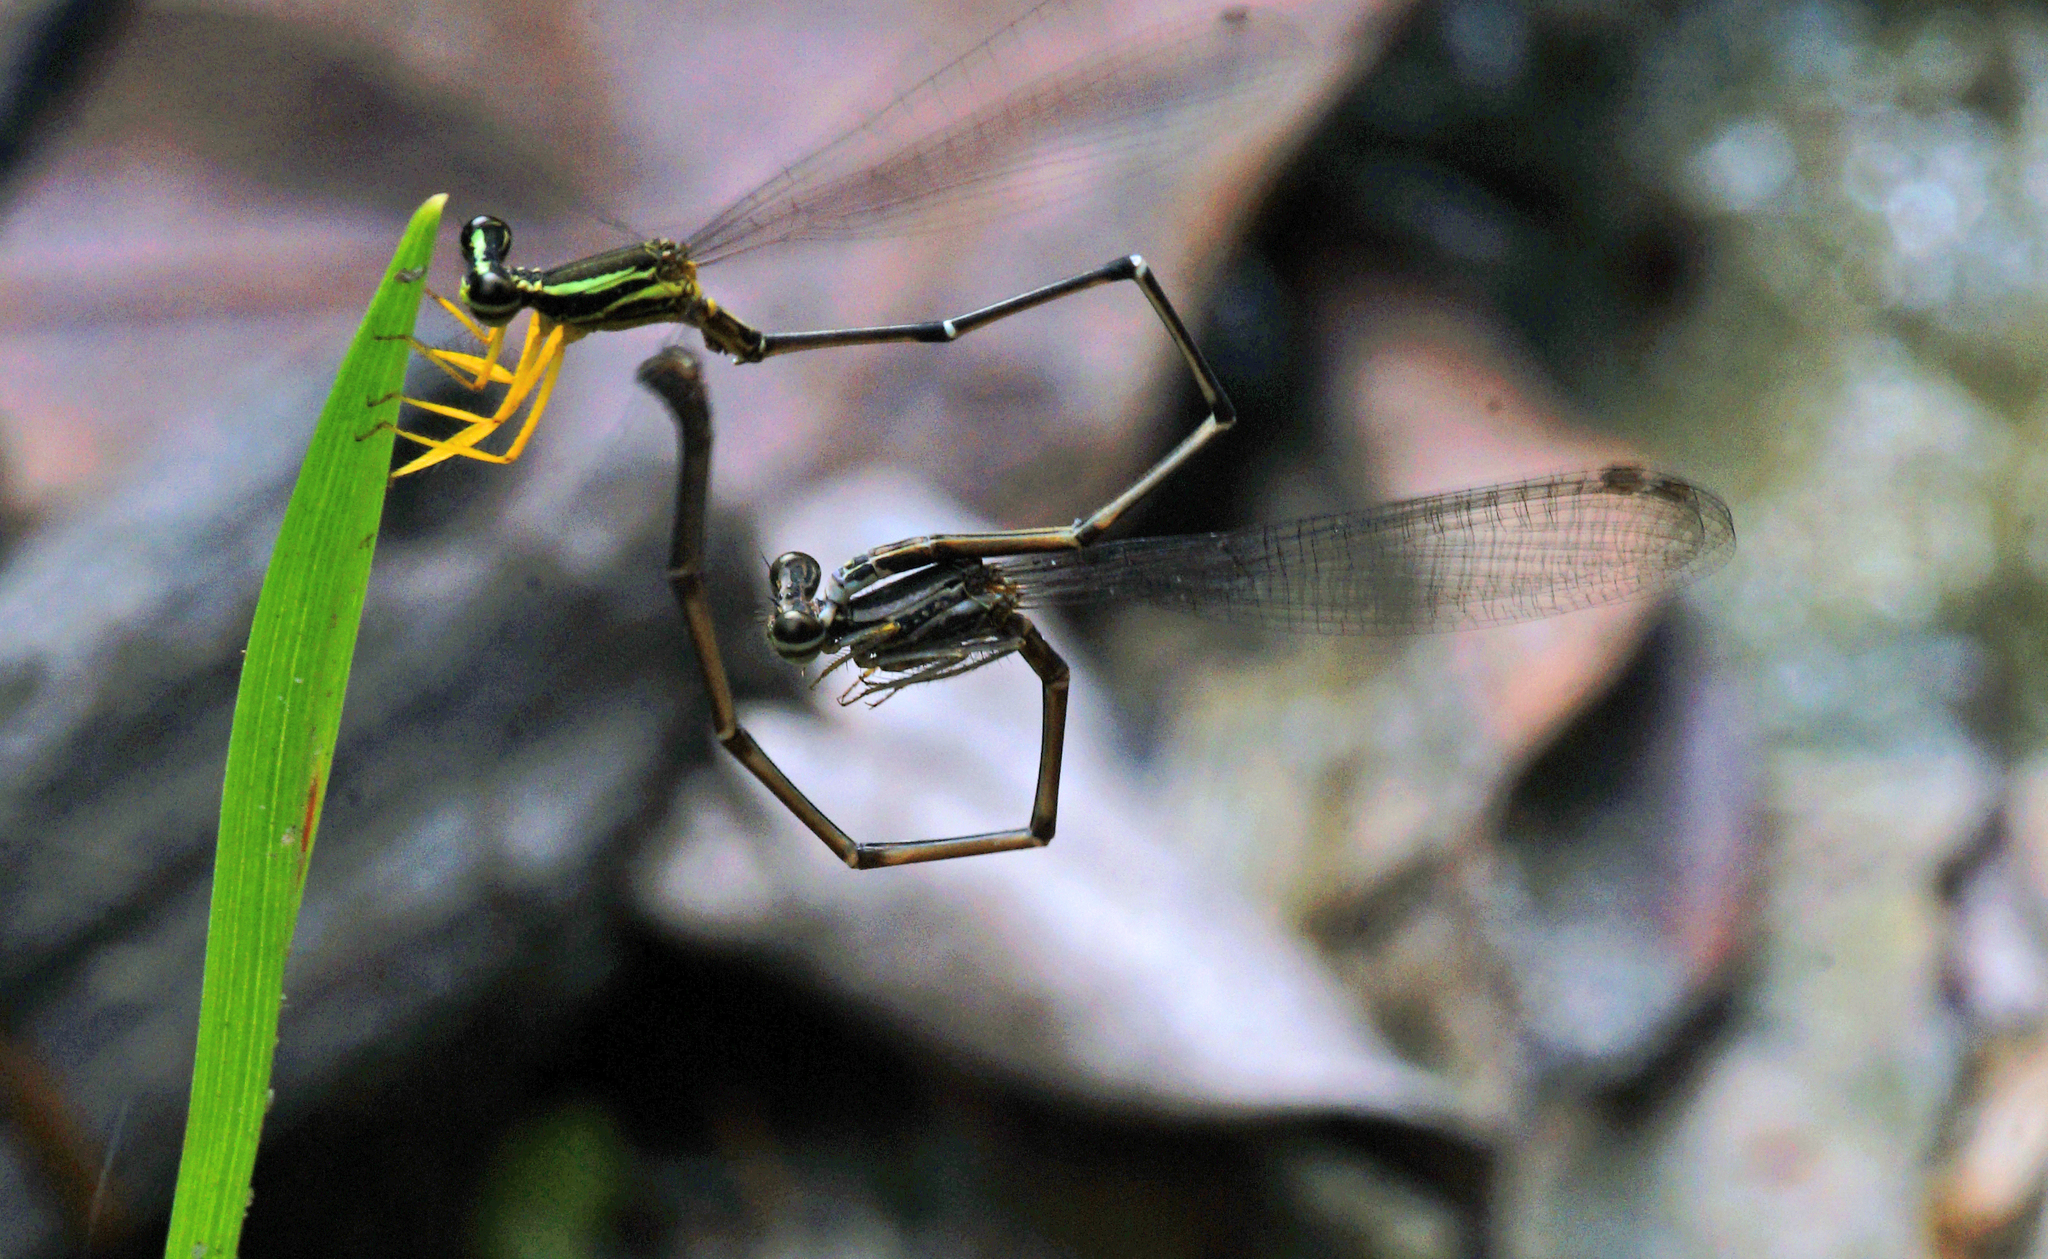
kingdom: Animalia
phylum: Arthropoda
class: Insecta
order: Odonata
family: Platycnemididae
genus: Copera
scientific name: Copera marginipes
